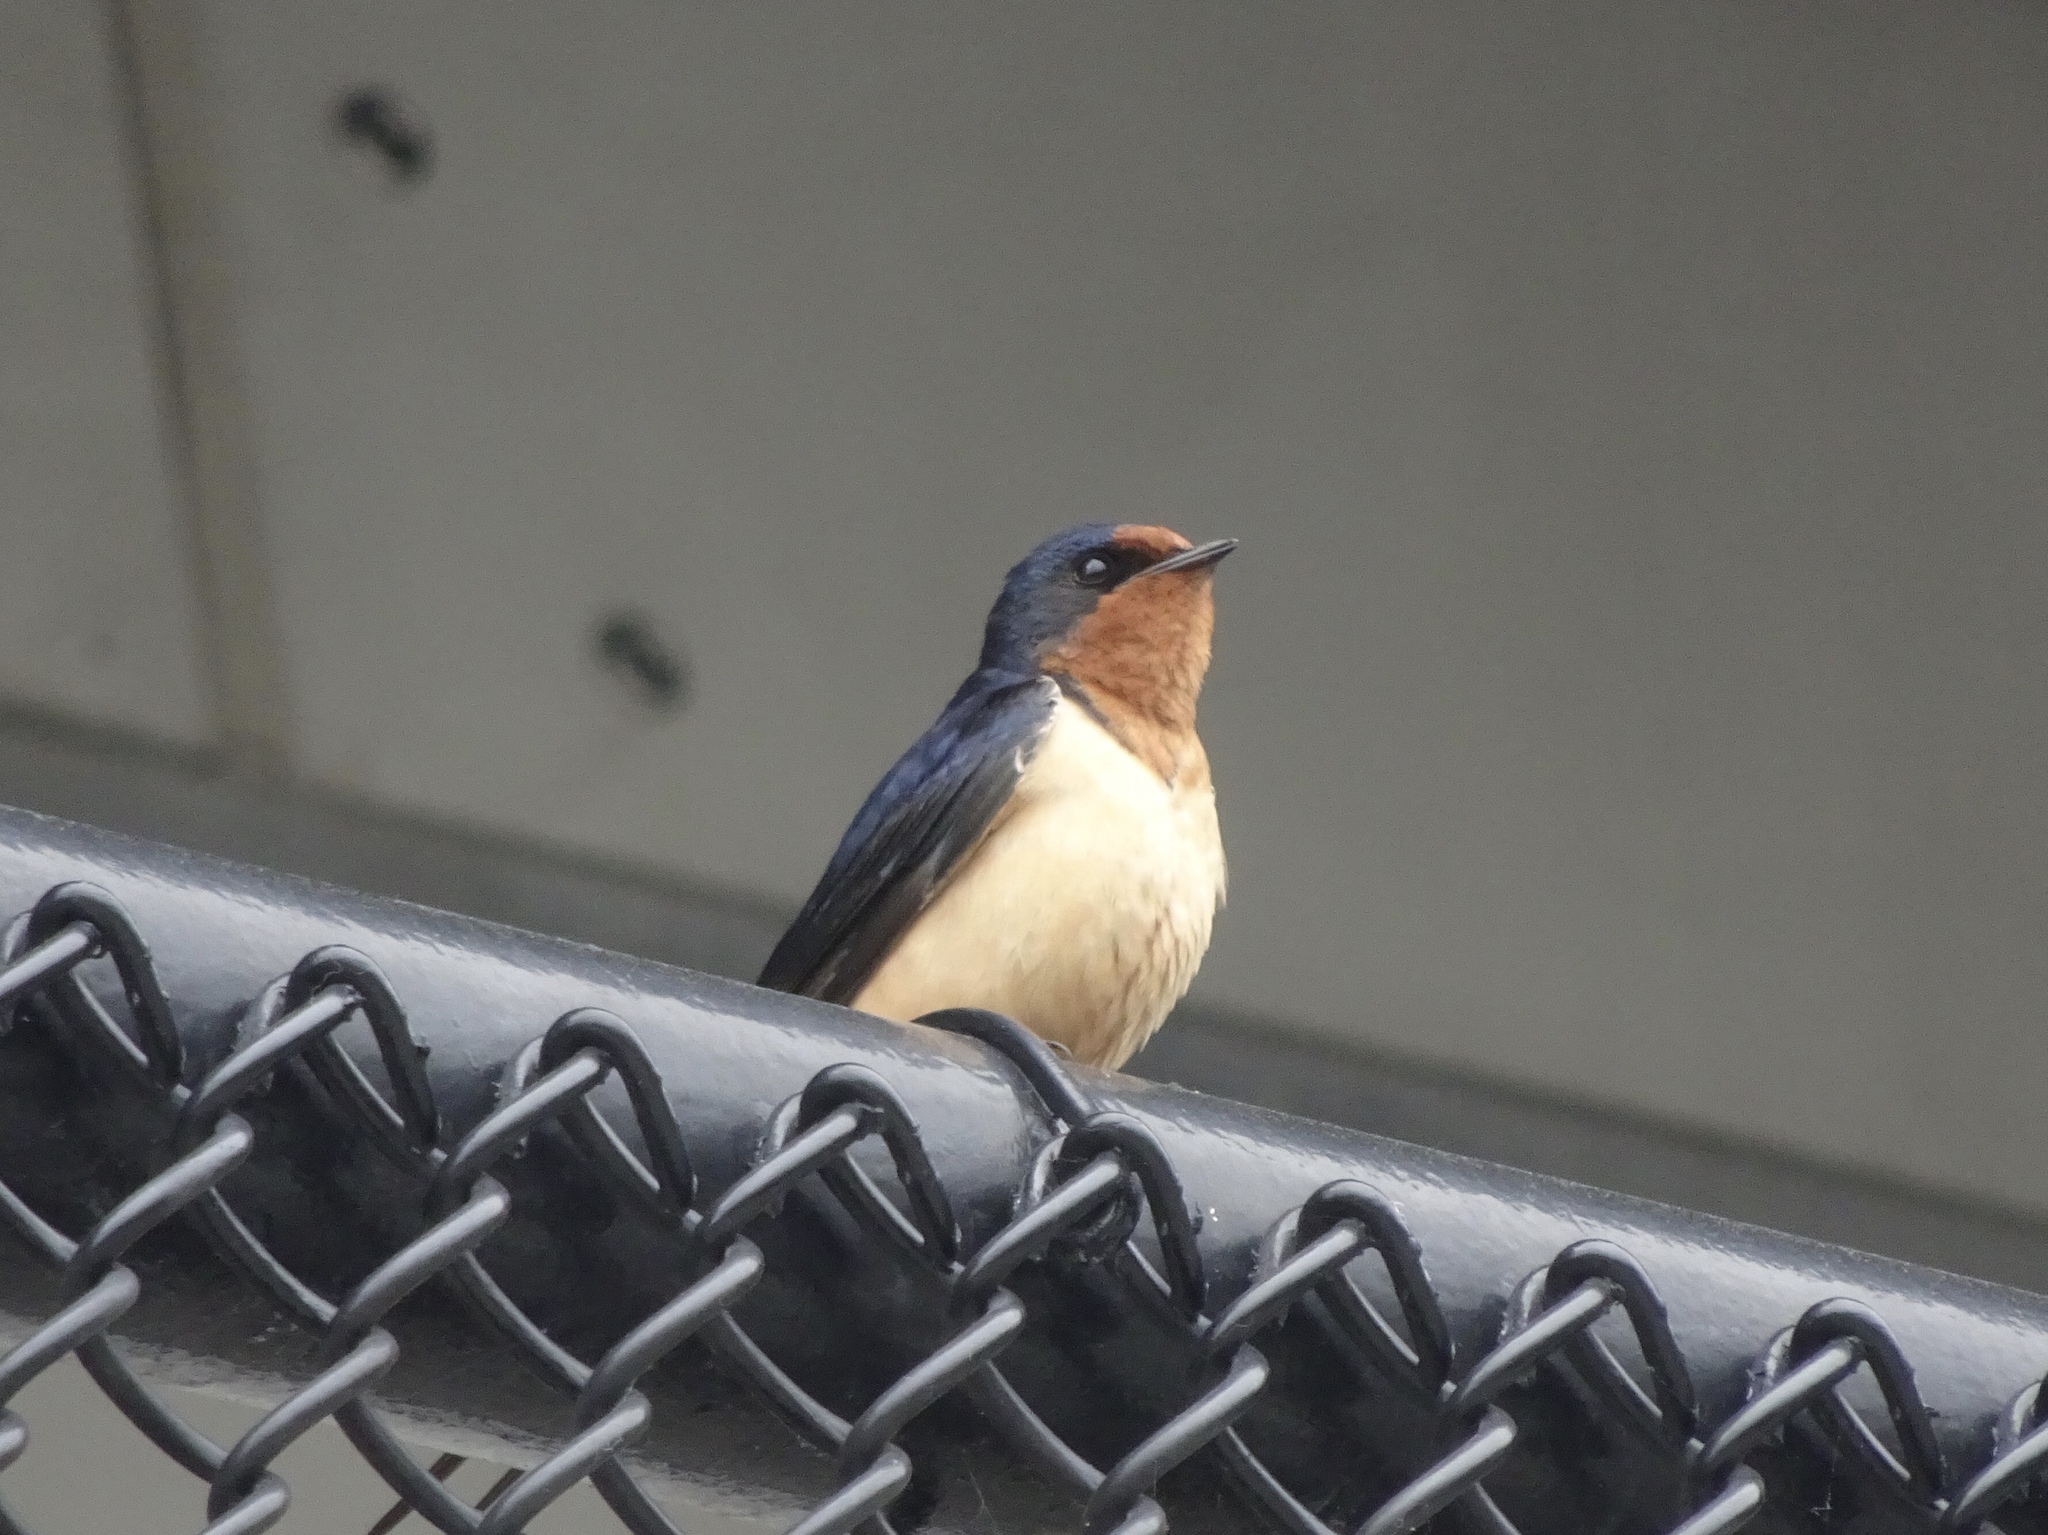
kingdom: Animalia
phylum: Chordata
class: Aves
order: Passeriformes
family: Hirundinidae
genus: Hirundo
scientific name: Hirundo rustica
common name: Barn swallow
